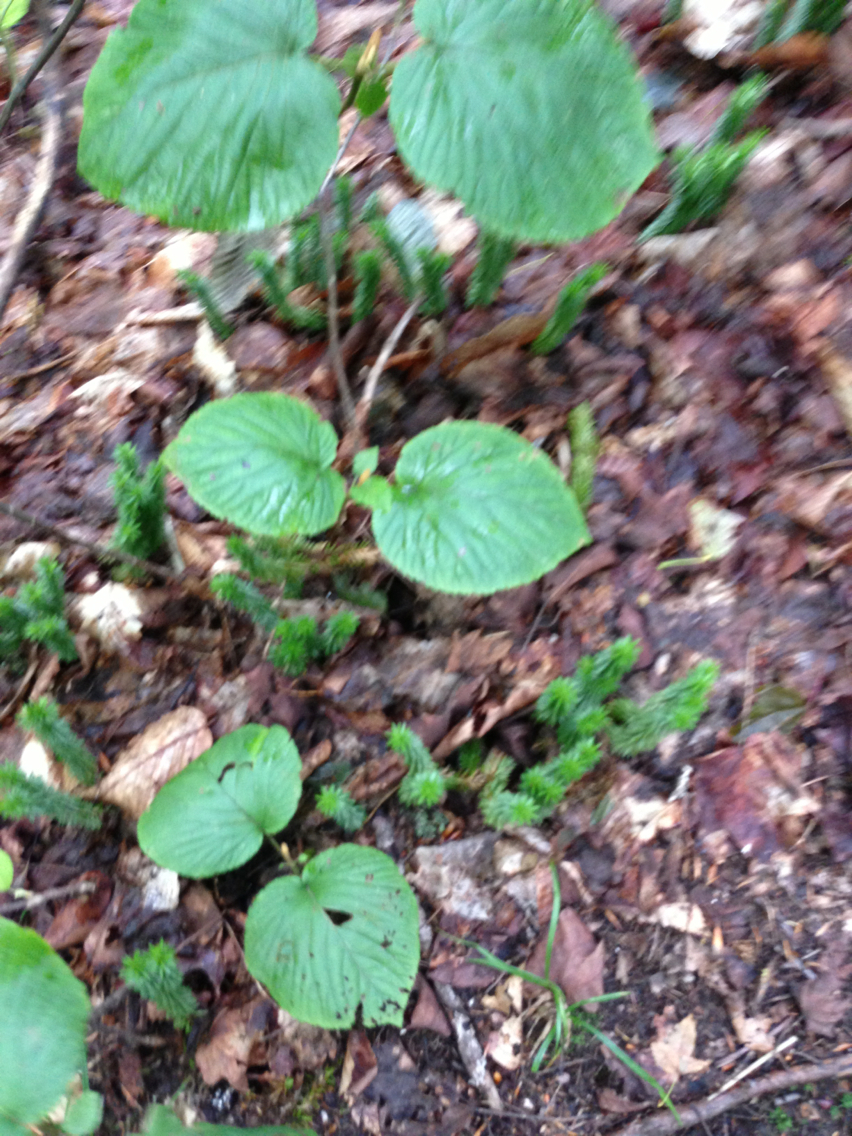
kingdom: Plantae
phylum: Tracheophyta
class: Magnoliopsida
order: Dipsacales
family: Viburnaceae
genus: Viburnum
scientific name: Viburnum lantanoides
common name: Hobblebush
